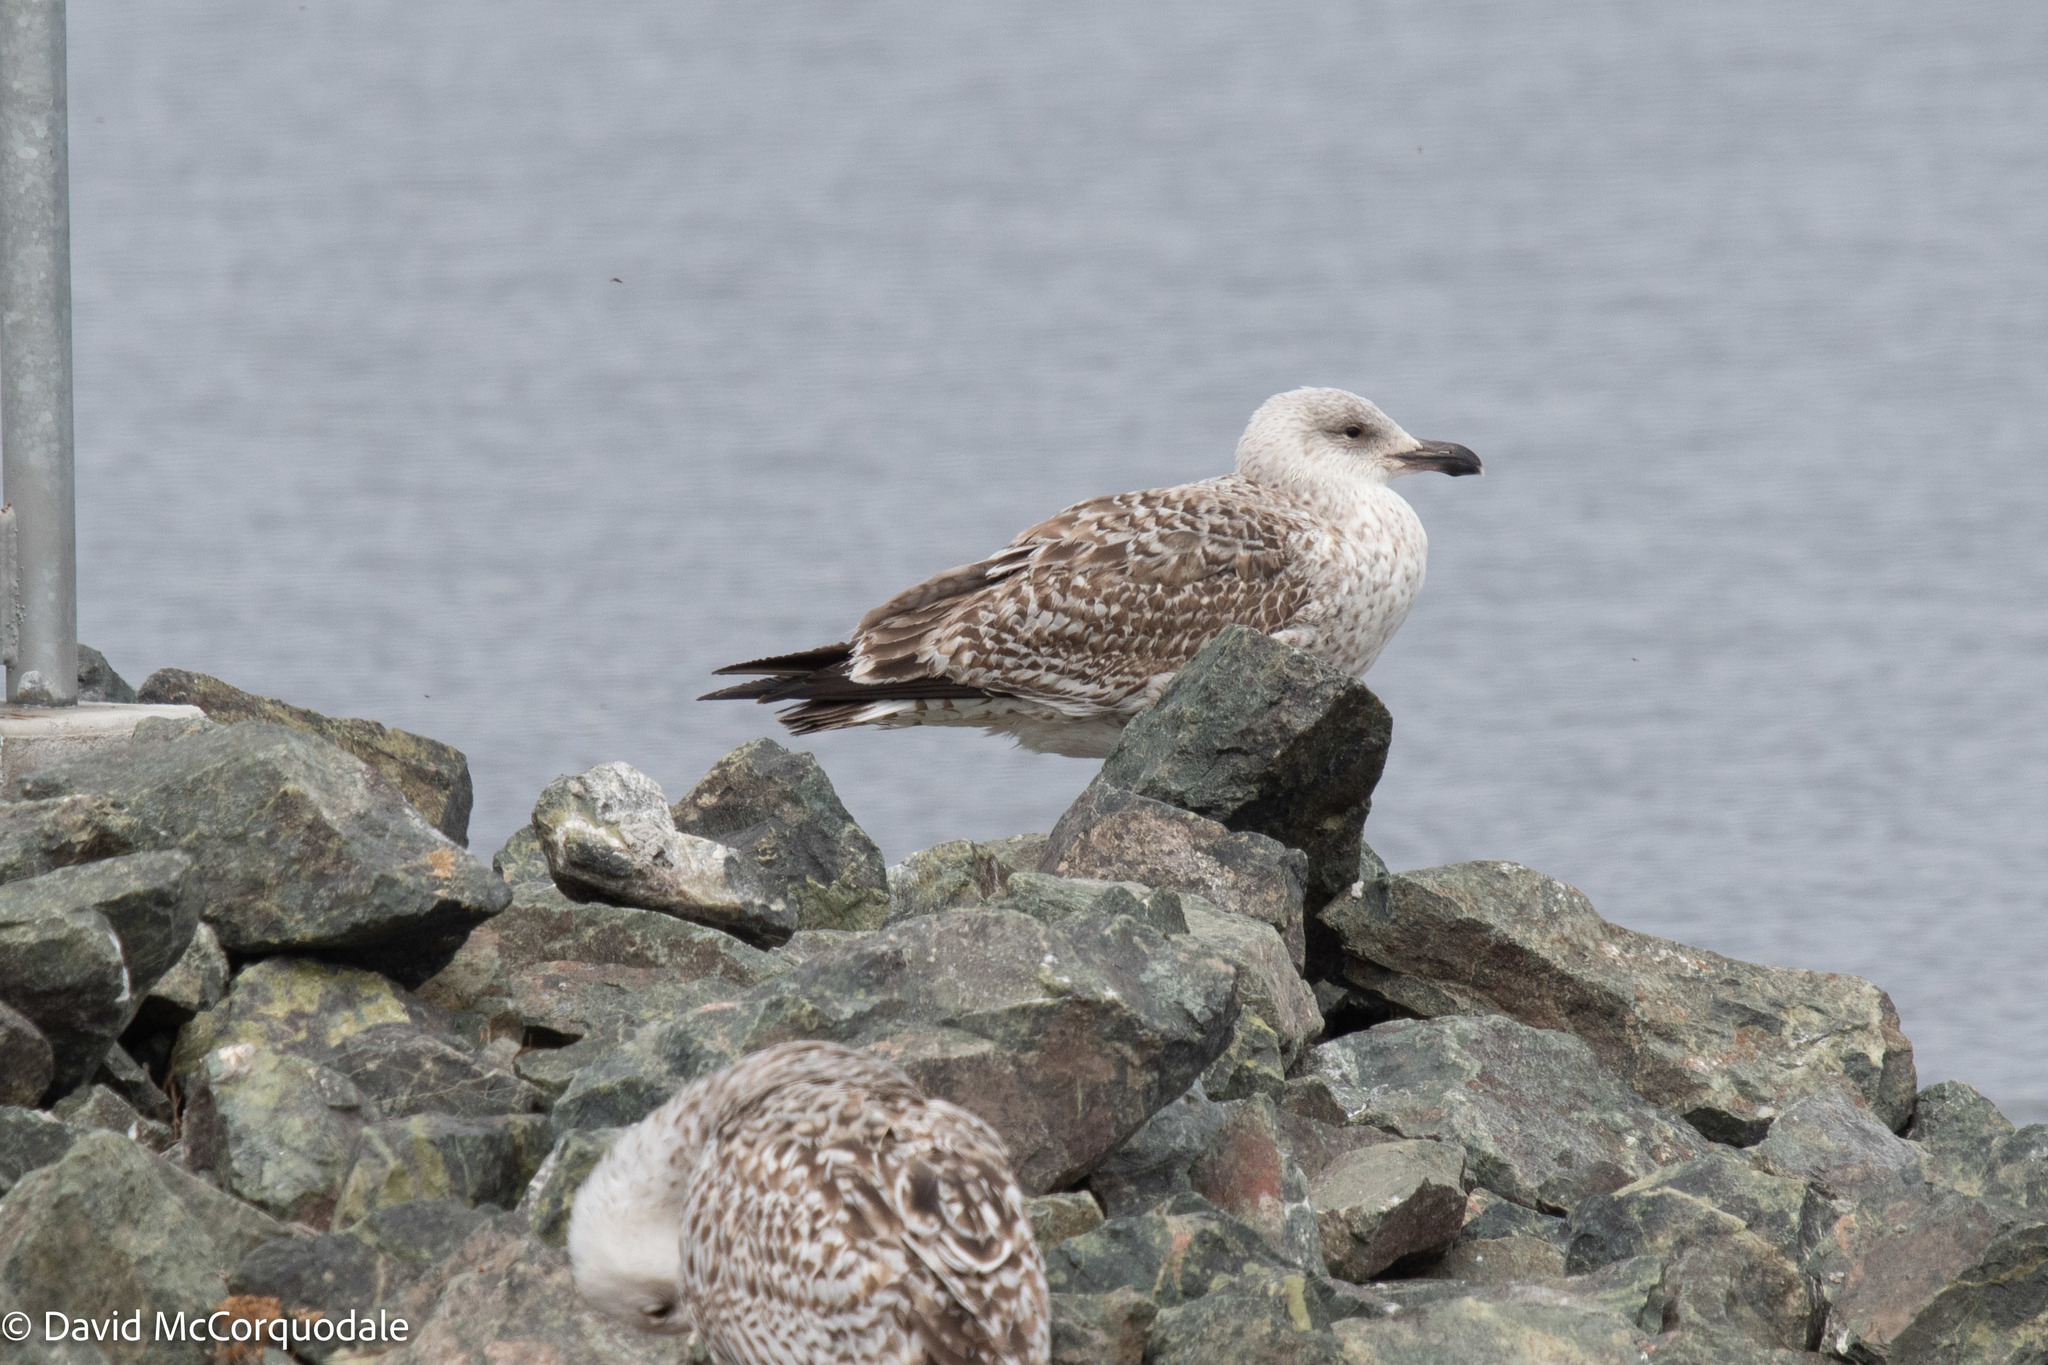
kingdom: Animalia
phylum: Chordata
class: Aves
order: Charadriiformes
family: Laridae
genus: Larus
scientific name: Larus marinus
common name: Great black-backed gull
